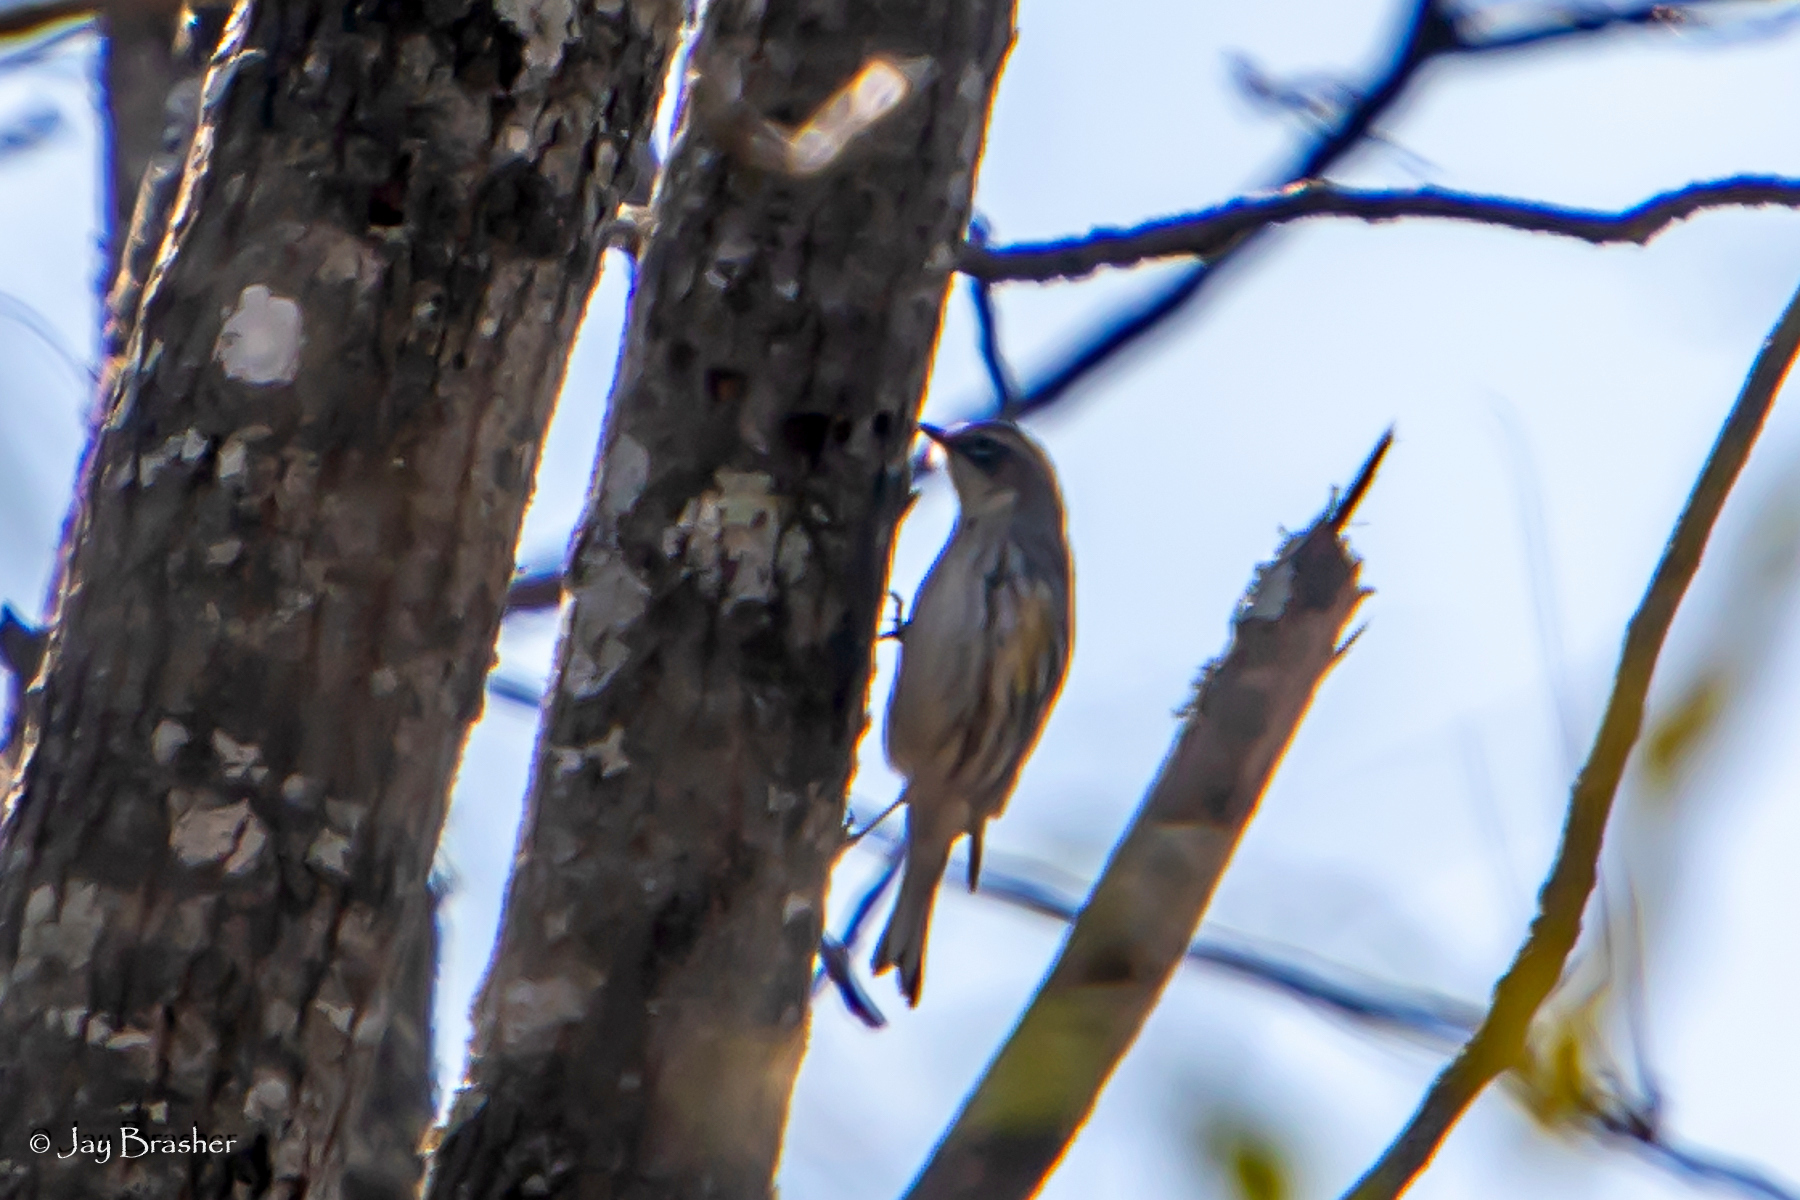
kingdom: Animalia
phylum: Chordata
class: Aves
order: Passeriformes
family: Parulidae
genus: Setophaga
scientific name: Setophaga coronata
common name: Myrtle warbler
